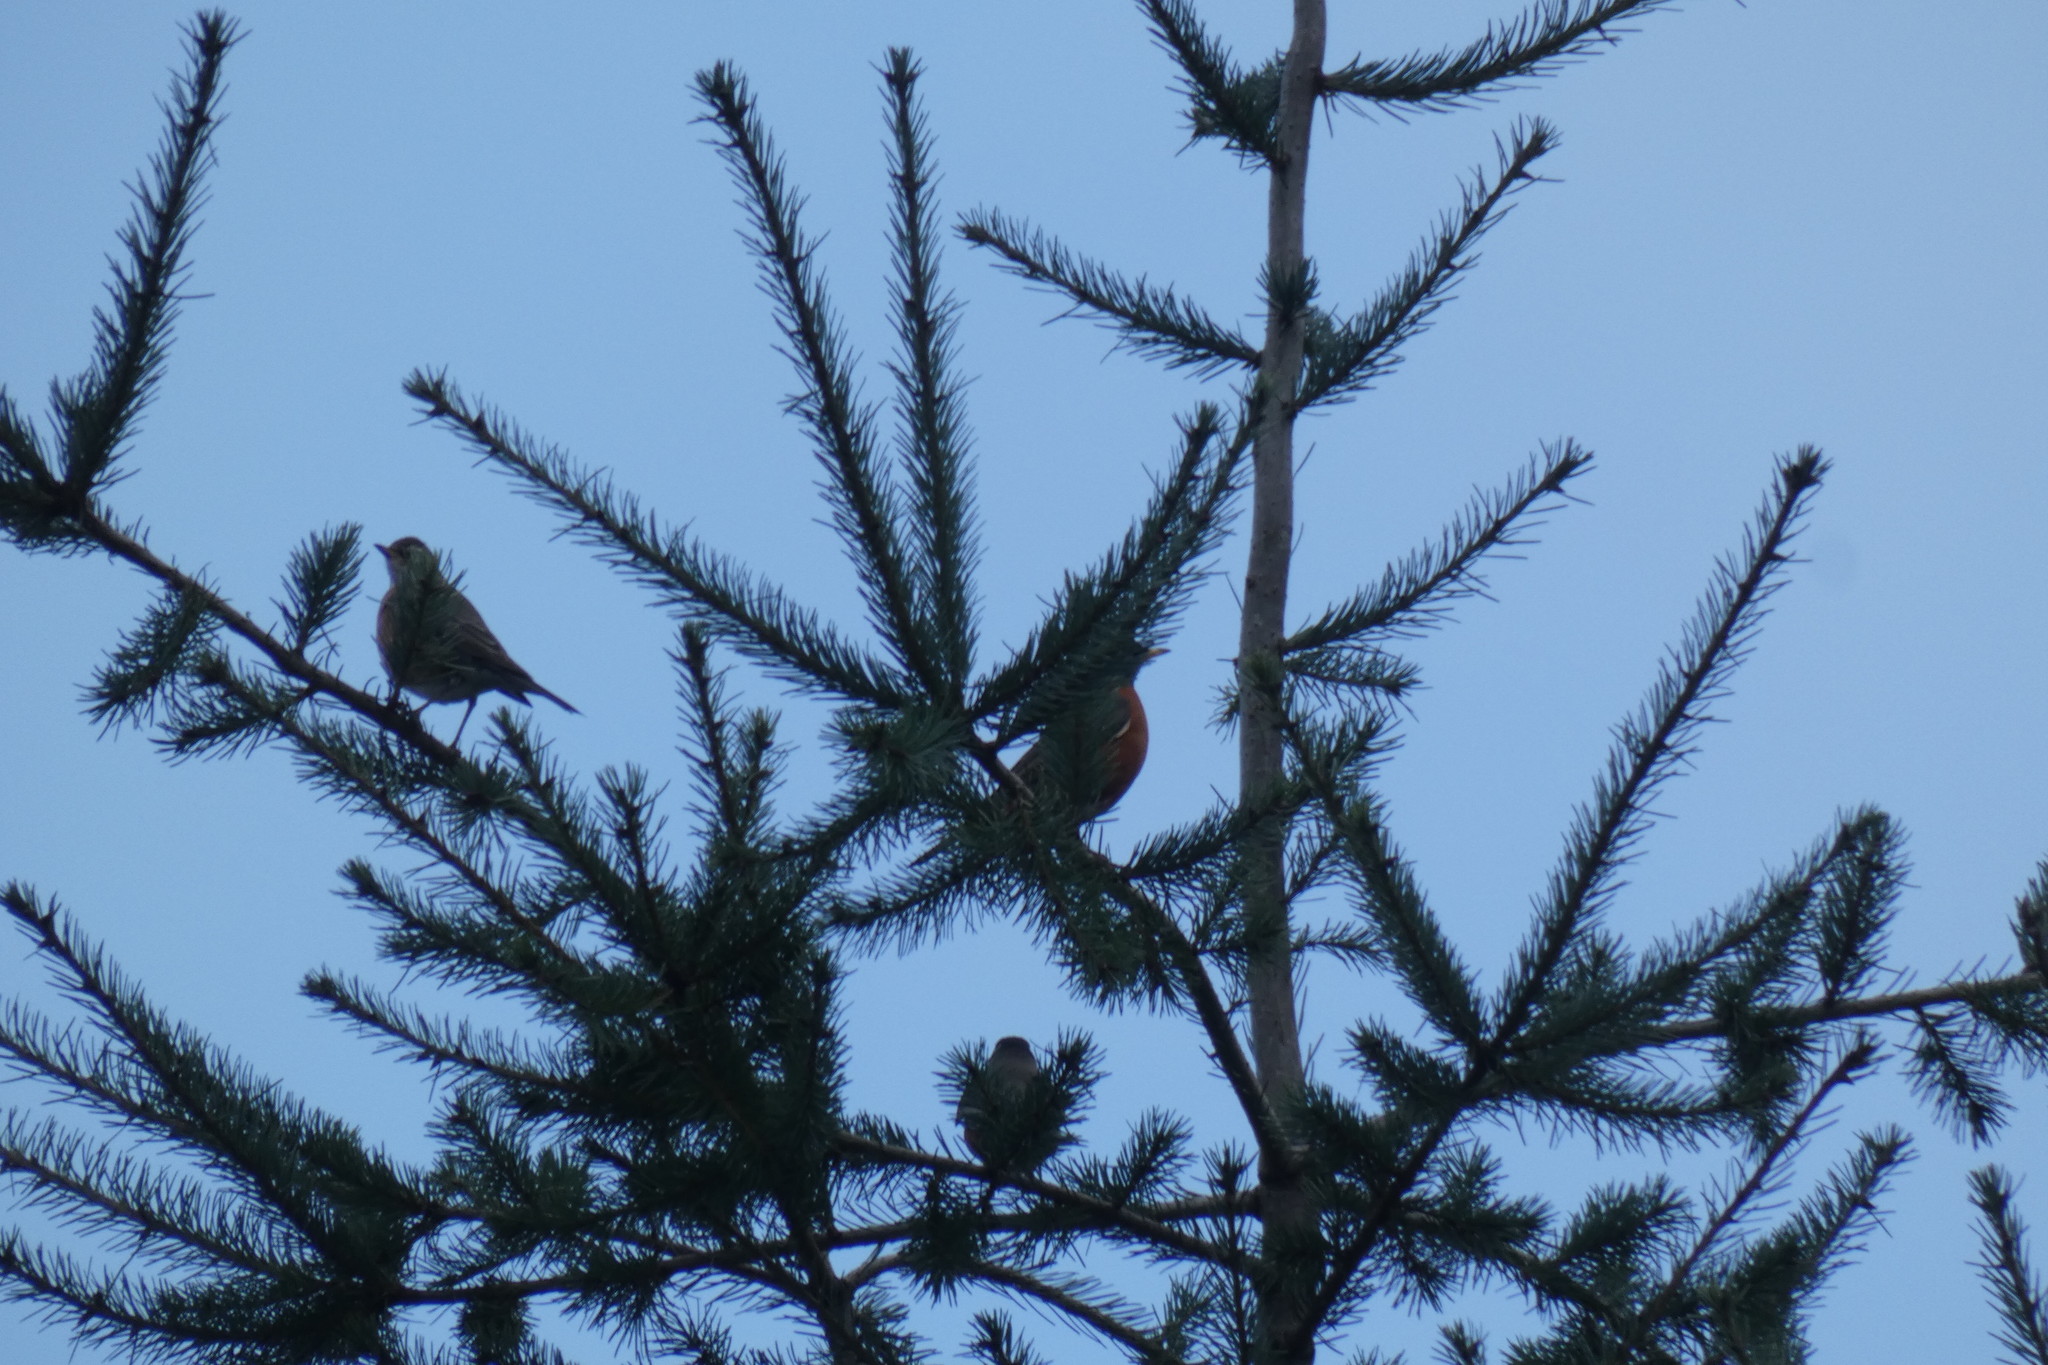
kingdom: Animalia
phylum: Chordata
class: Aves
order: Passeriformes
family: Turdidae
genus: Turdus
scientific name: Turdus migratorius
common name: American robin
